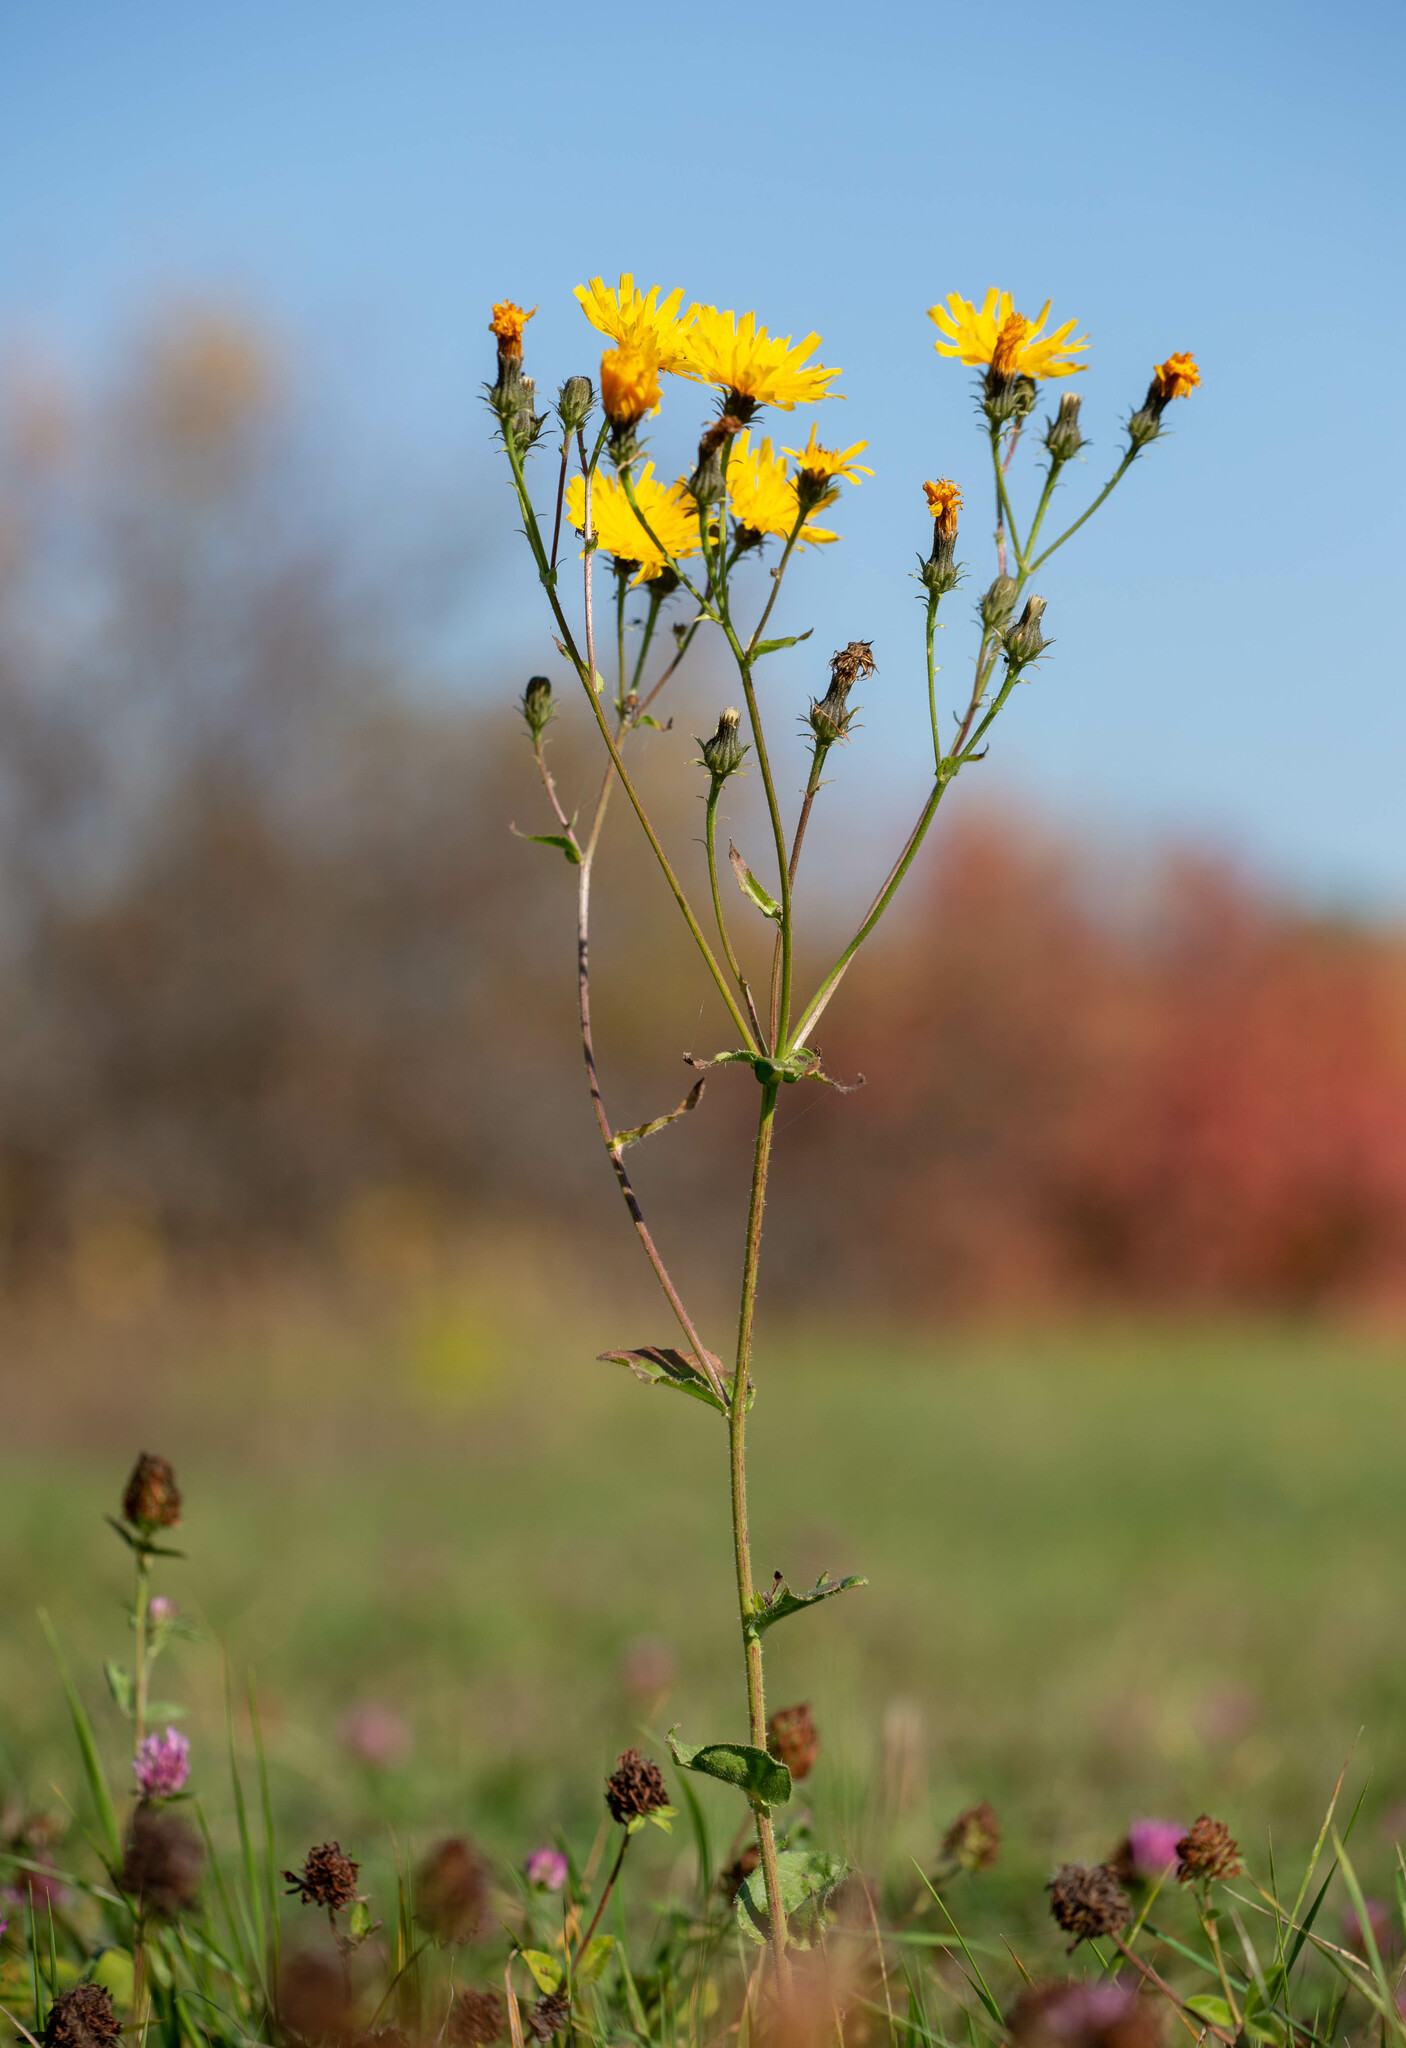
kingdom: Plantae
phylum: Tracheophyta
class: Magnoliopsida
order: Asterales
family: Asteraceae
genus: Picris
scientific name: Picris hieracioides
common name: Hawkweed oxtongue
